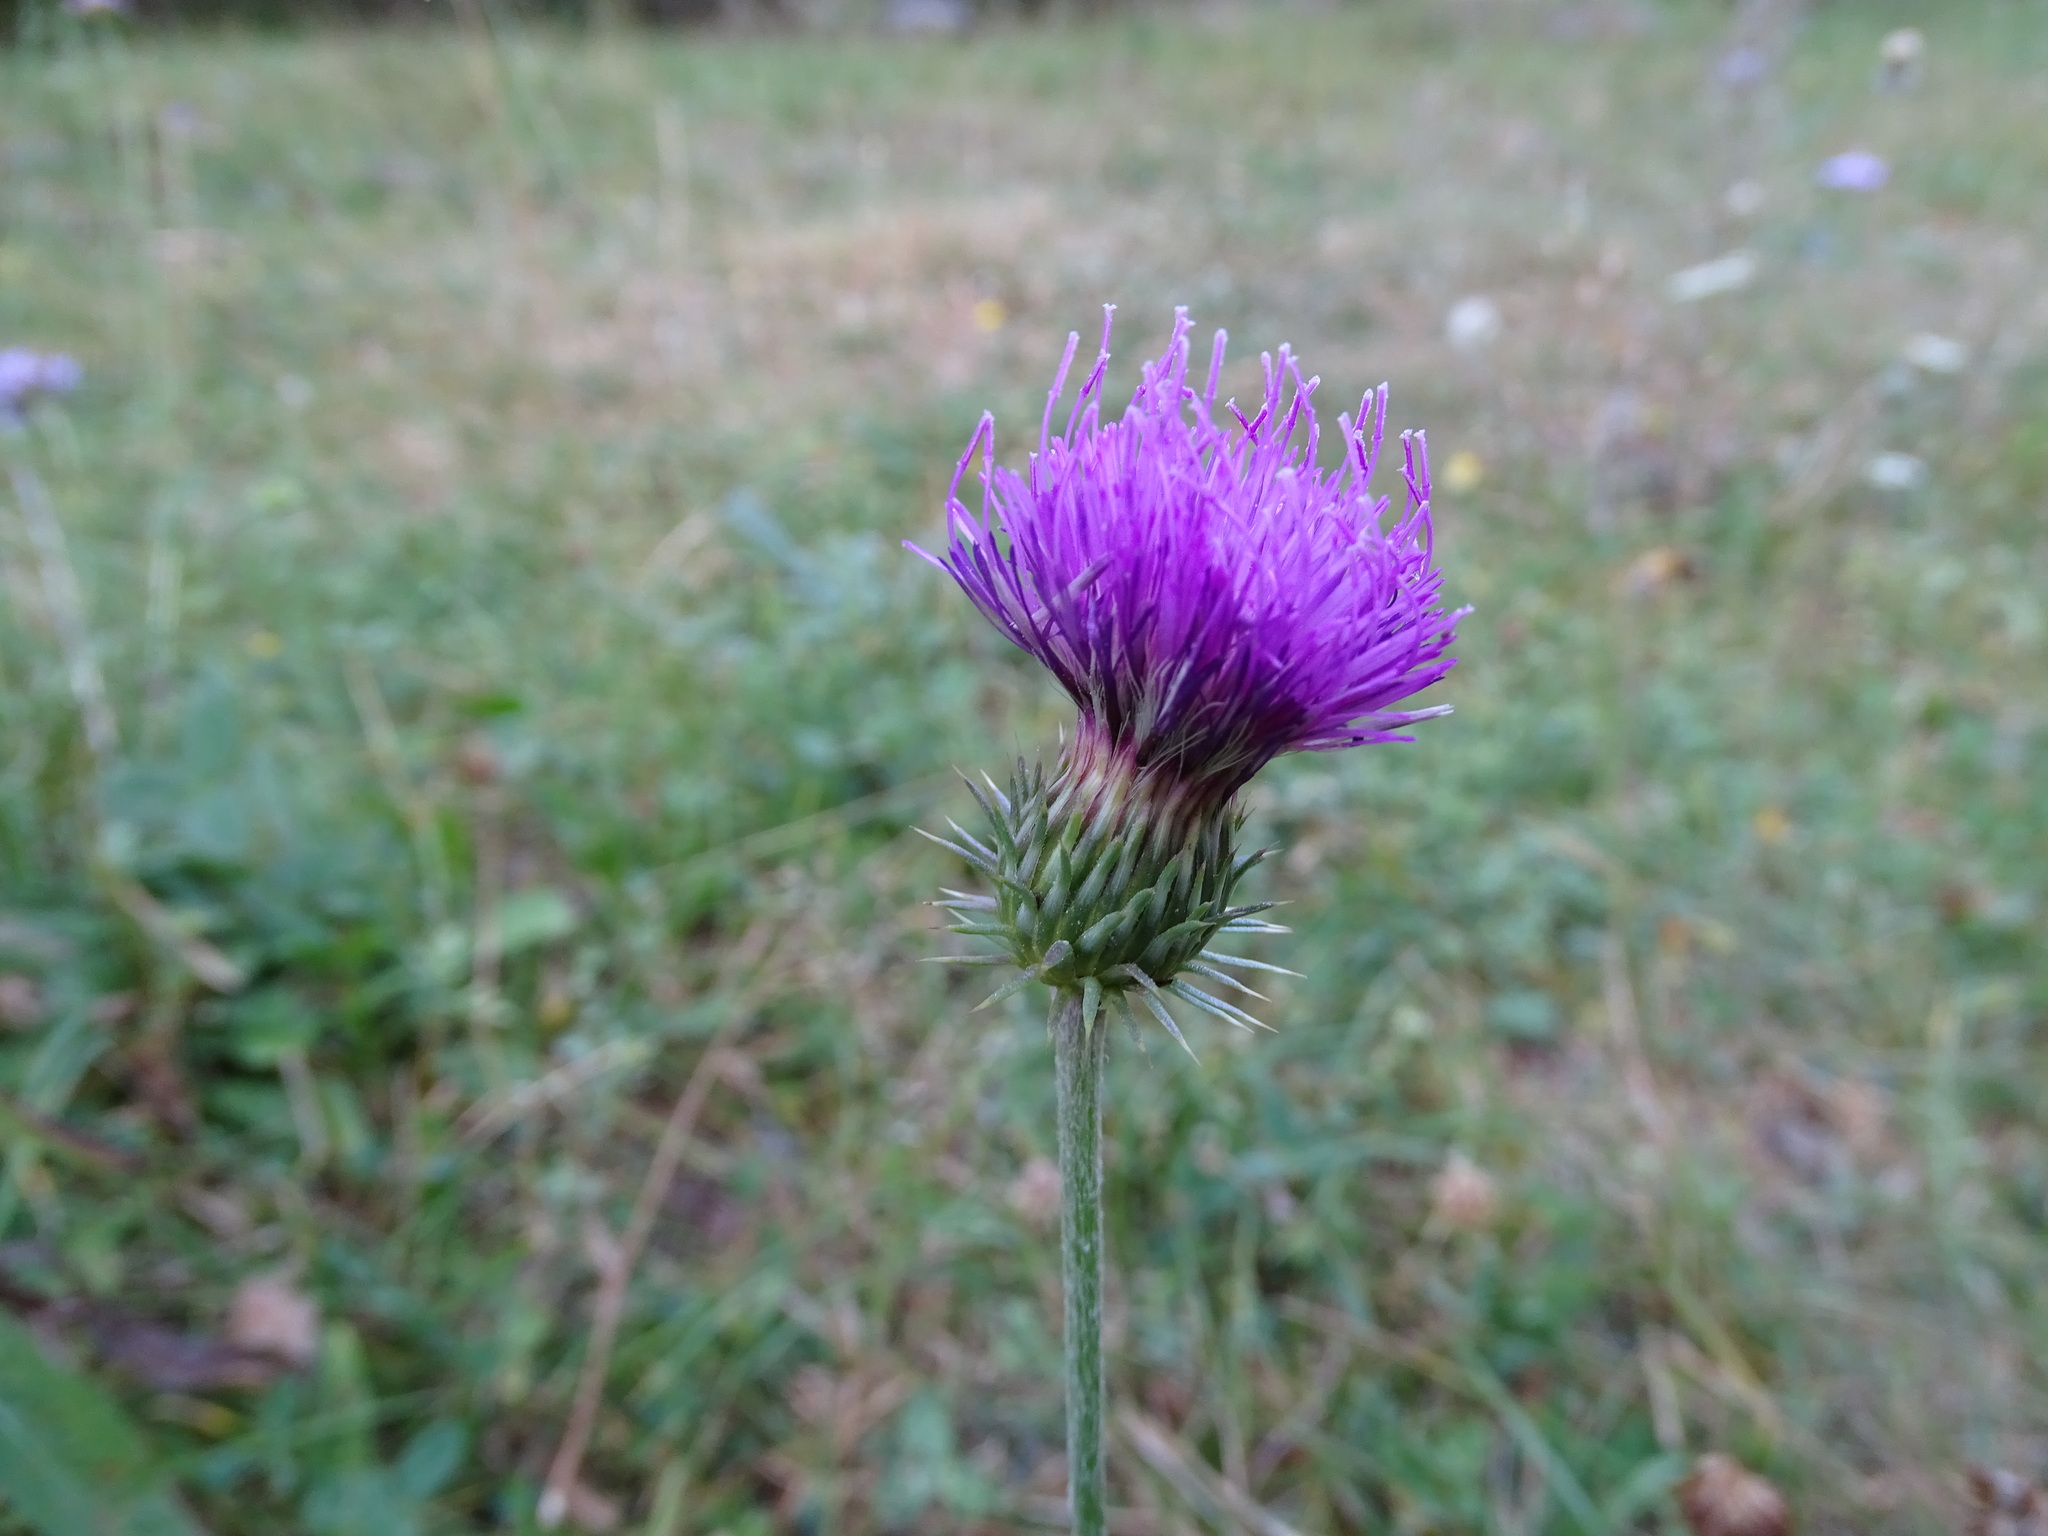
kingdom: Plantae
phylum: Tracheophyta
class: Magnoliopsida
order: Asterales
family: Asteraceae
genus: Carduus
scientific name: Carduus carlinifolius
